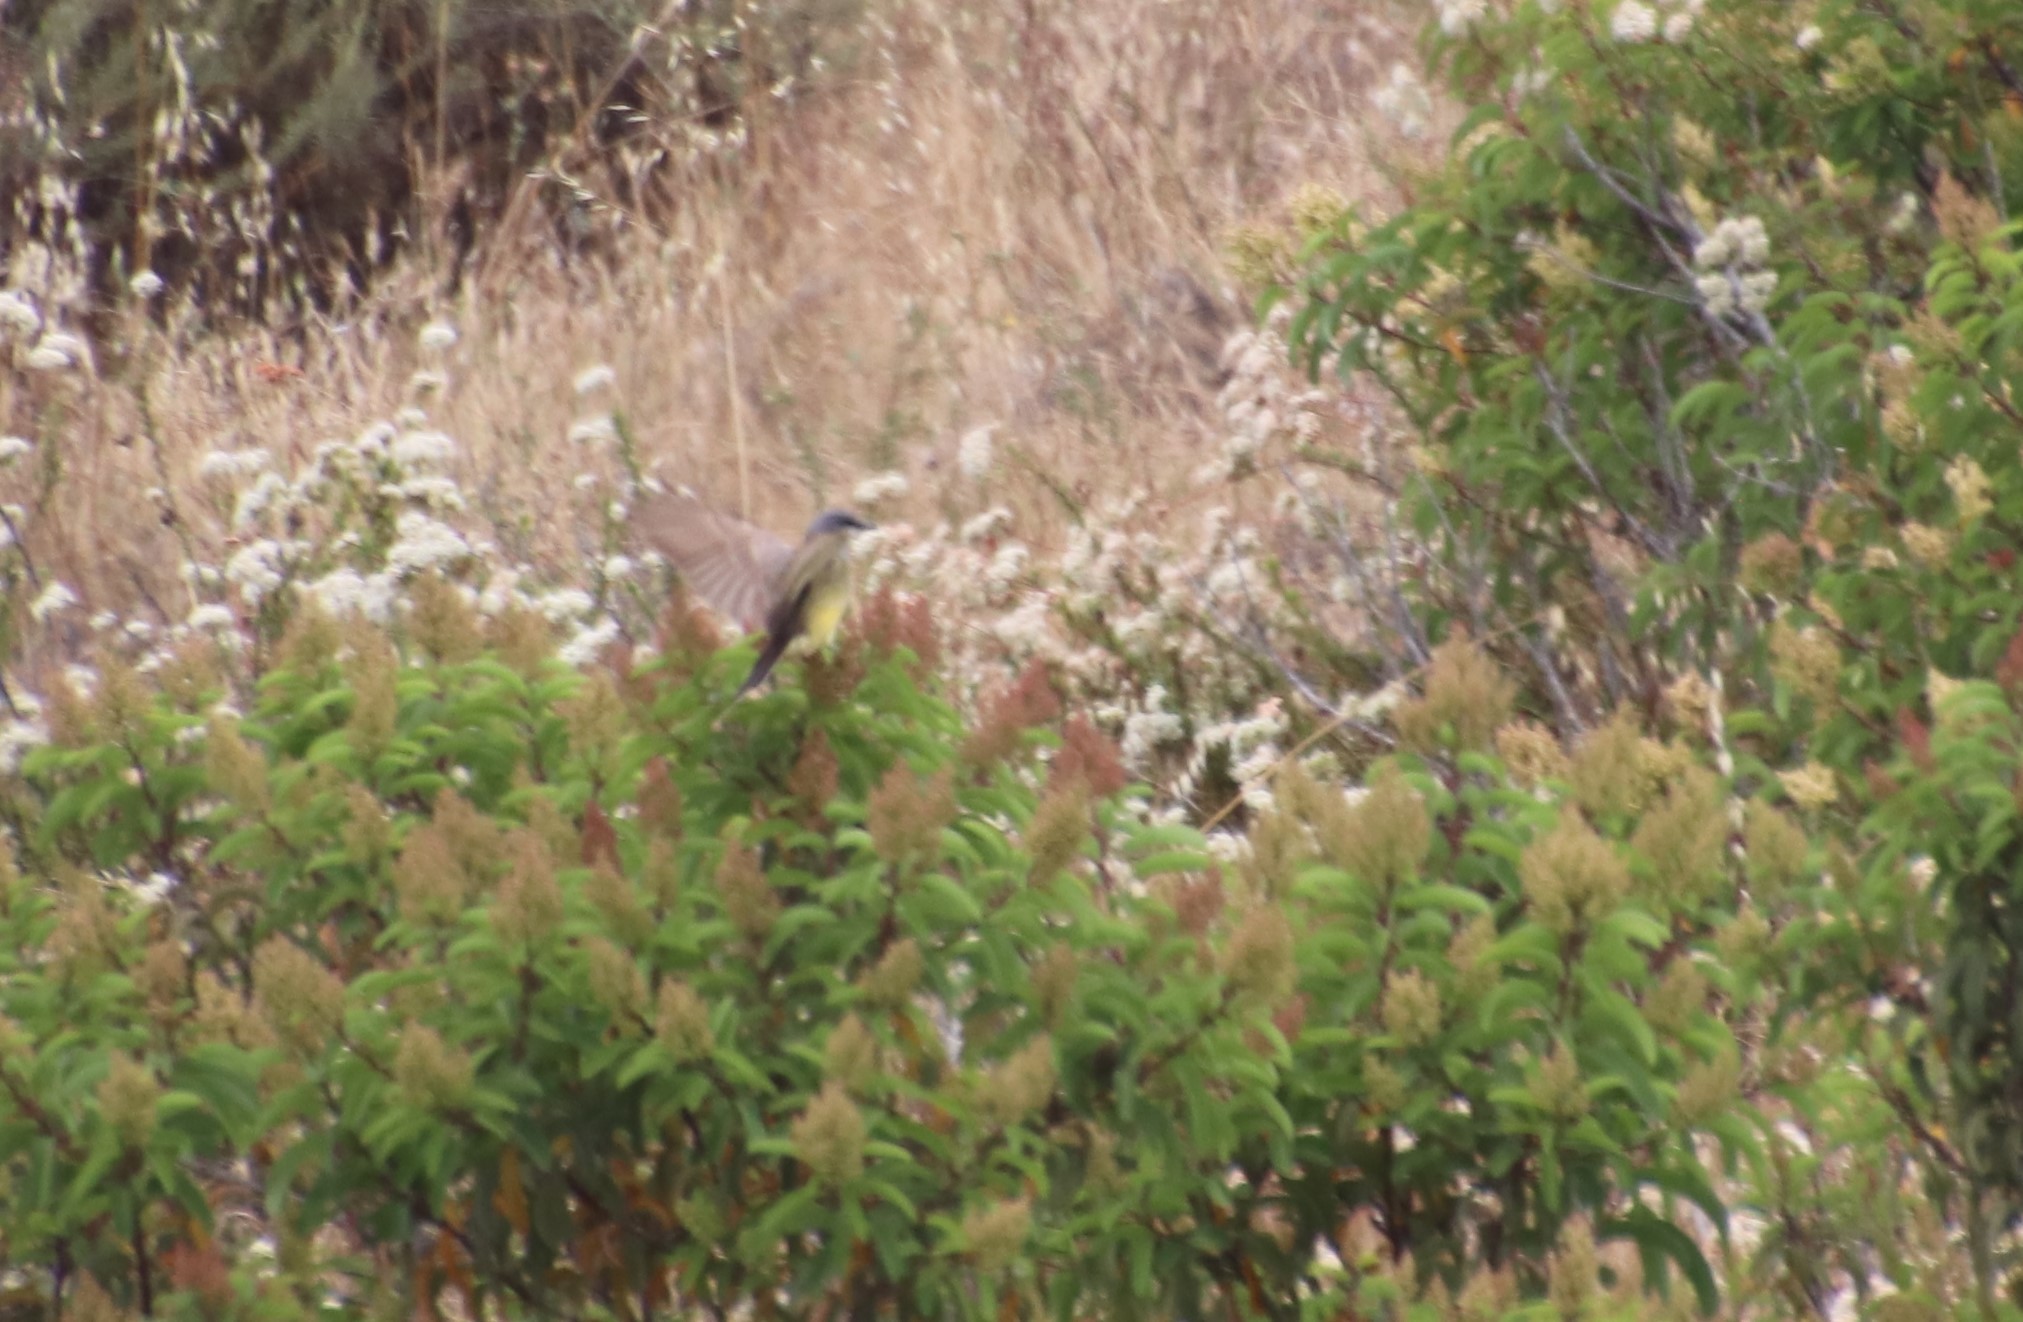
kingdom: Animalia
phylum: Chordata
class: Aves
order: Passeriformes
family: Tyrannidae
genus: Tyrannus
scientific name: Tyrannus vociferans
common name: Cassin's kingbird
